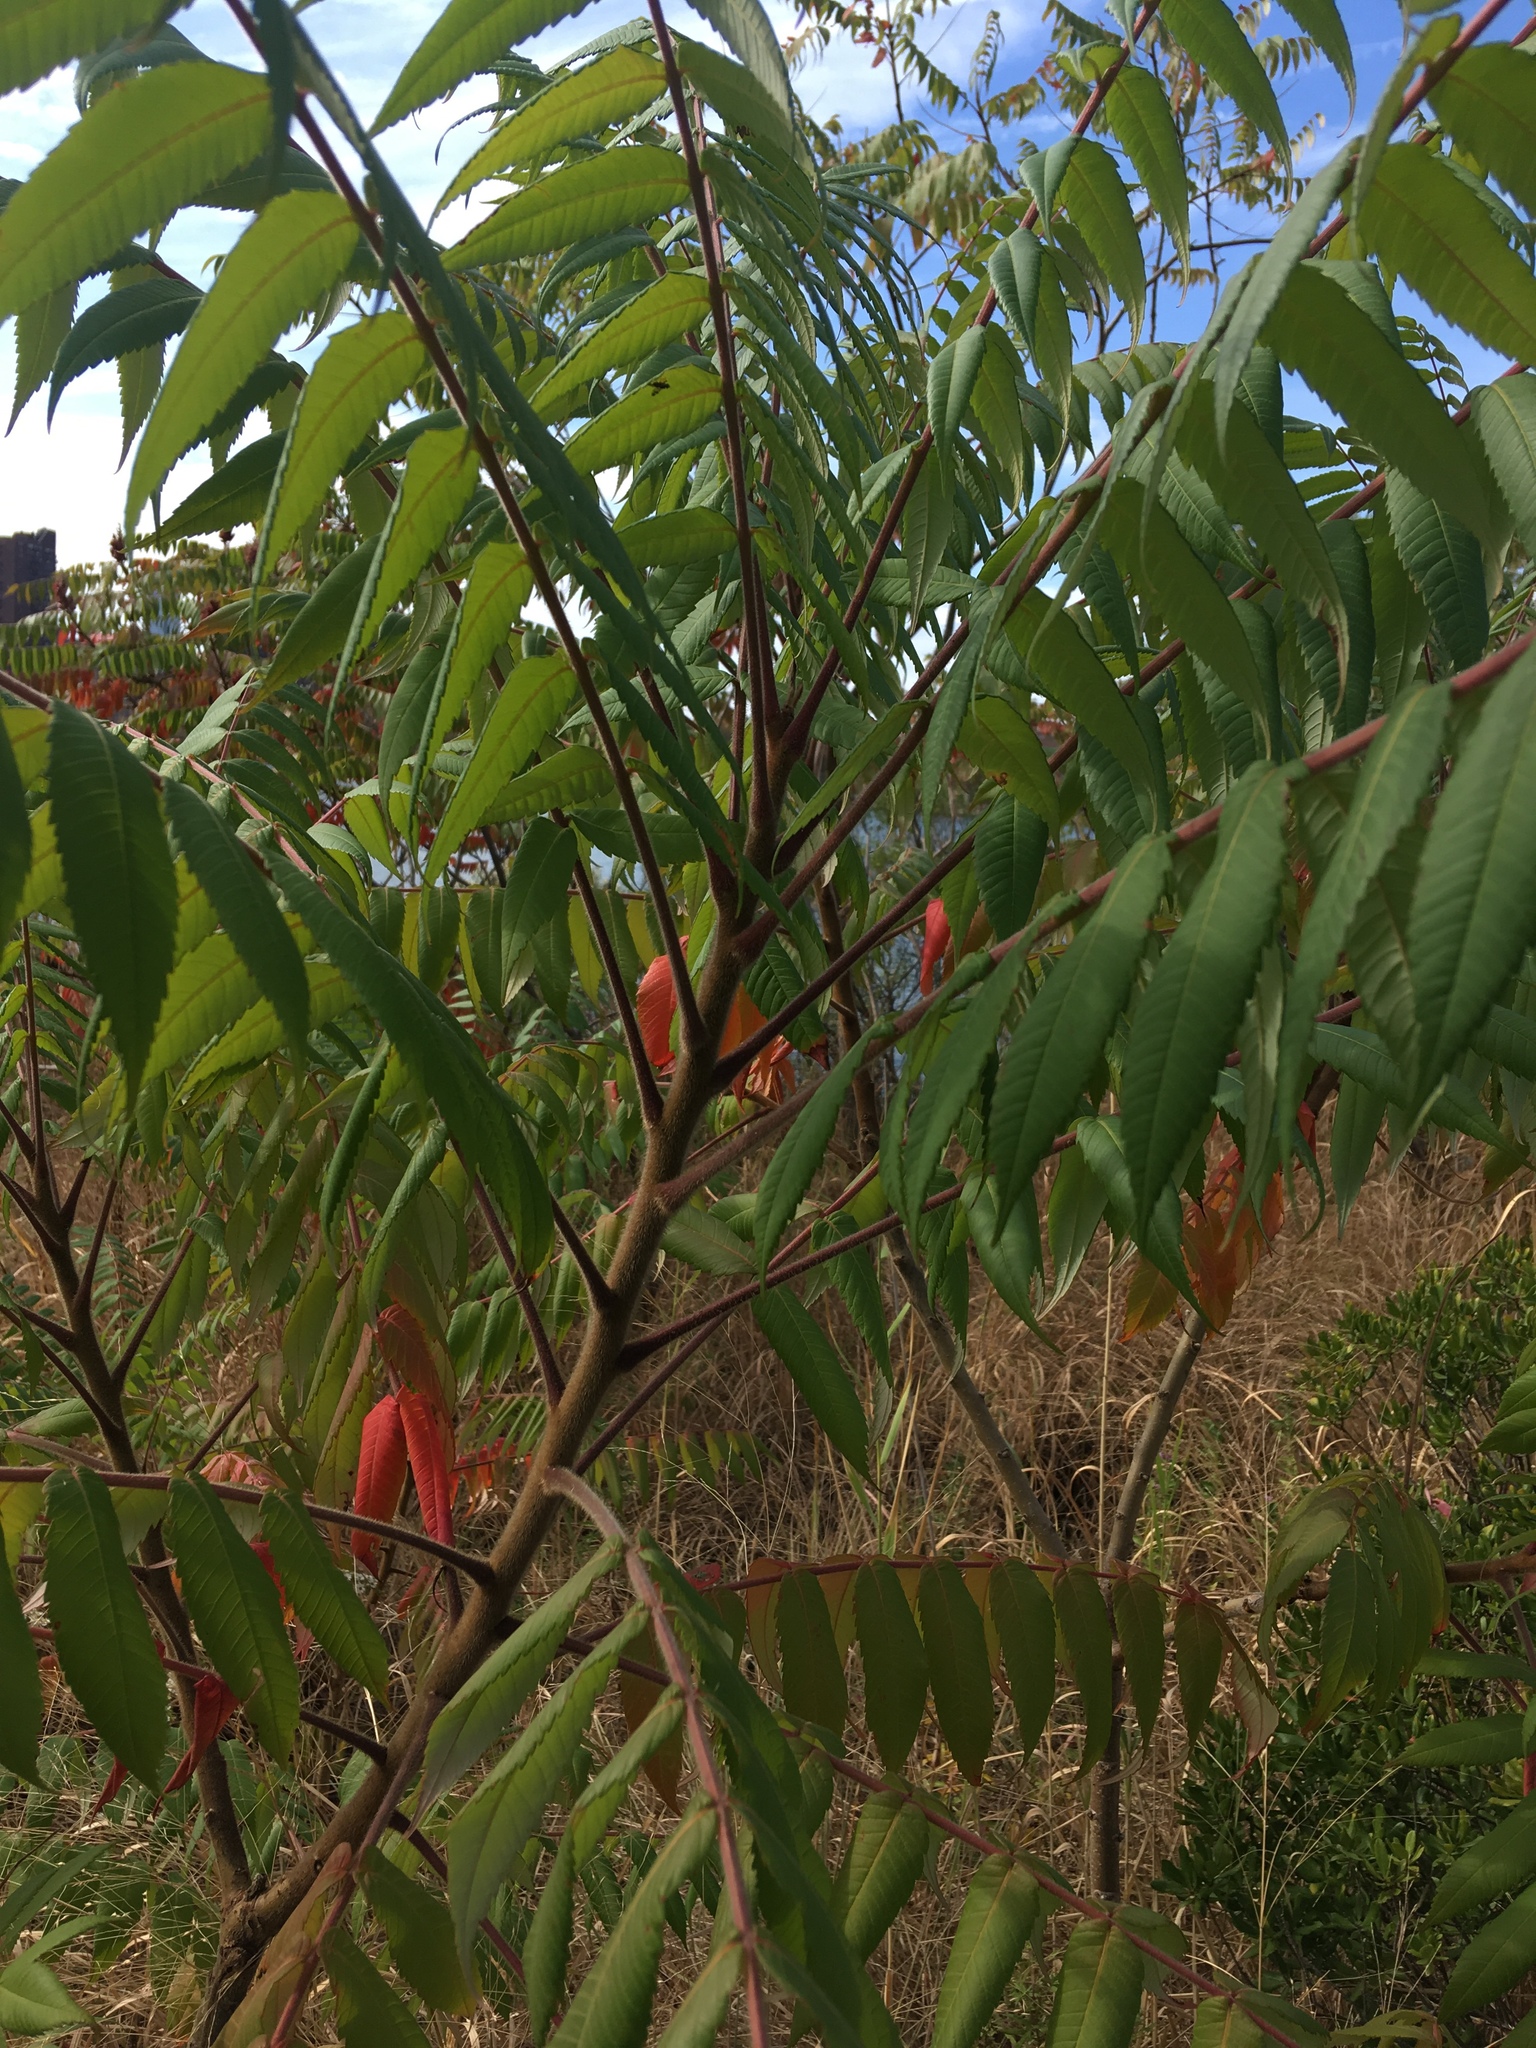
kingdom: Plantae
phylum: Tracheophyta
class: Magnoliopsida
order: Sapindales
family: Anacardiaceae
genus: Rhus
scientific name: Rhus typhina
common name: Staghorn sumac
